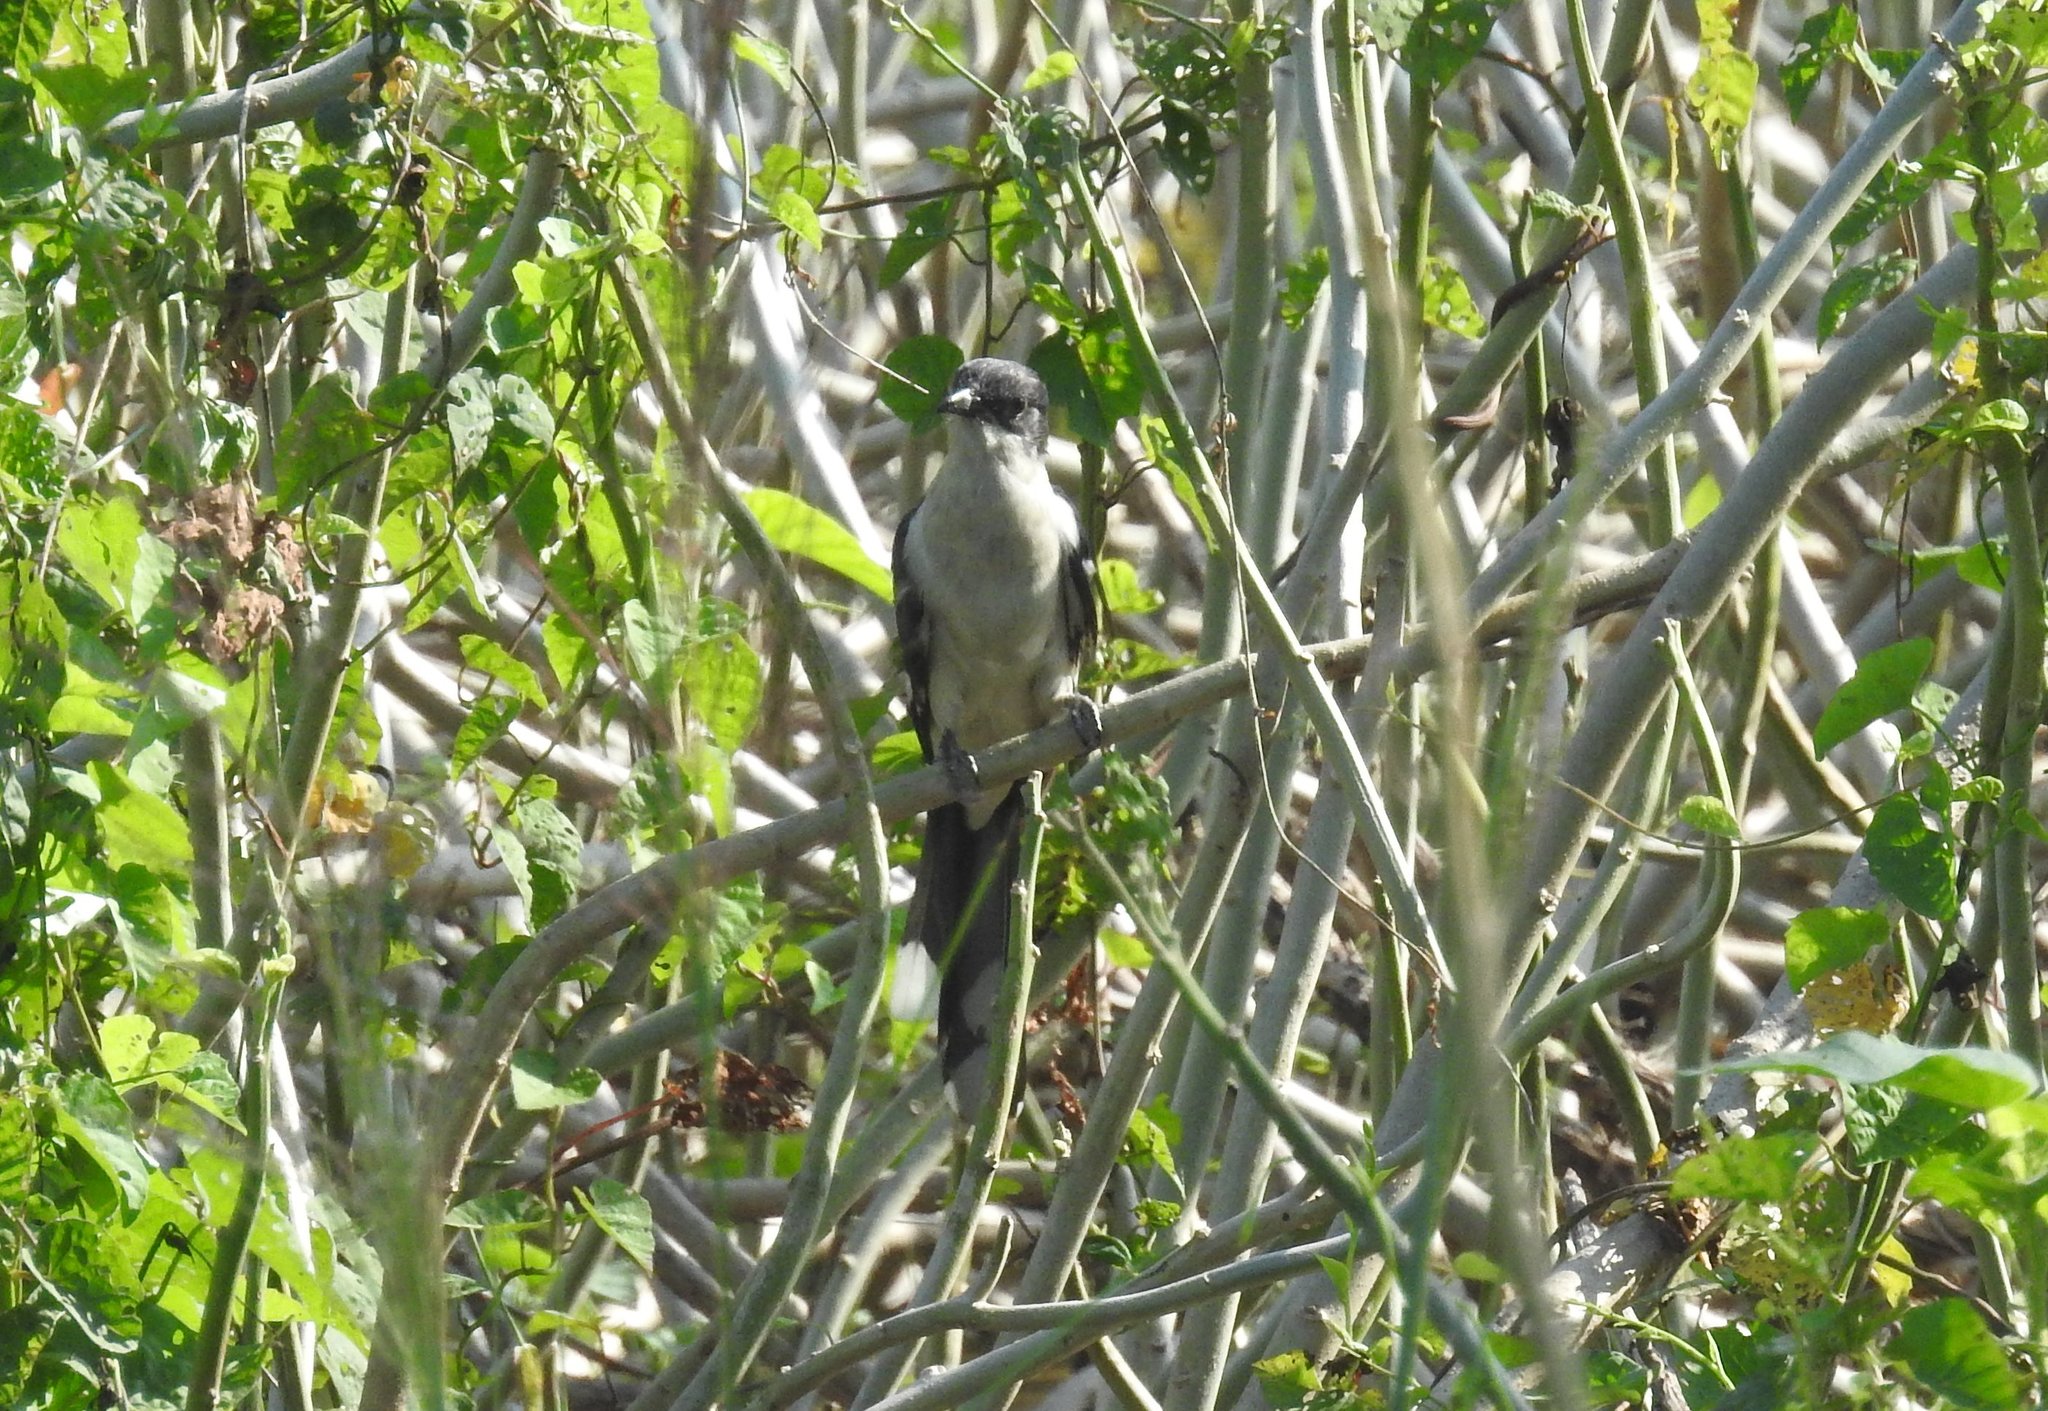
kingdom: Animalia
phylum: Chordata
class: Aves
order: Cuculiformes
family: Cuculidae
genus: Clamator
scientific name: Clamator jacobinus
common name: Jacobin cuckoo
